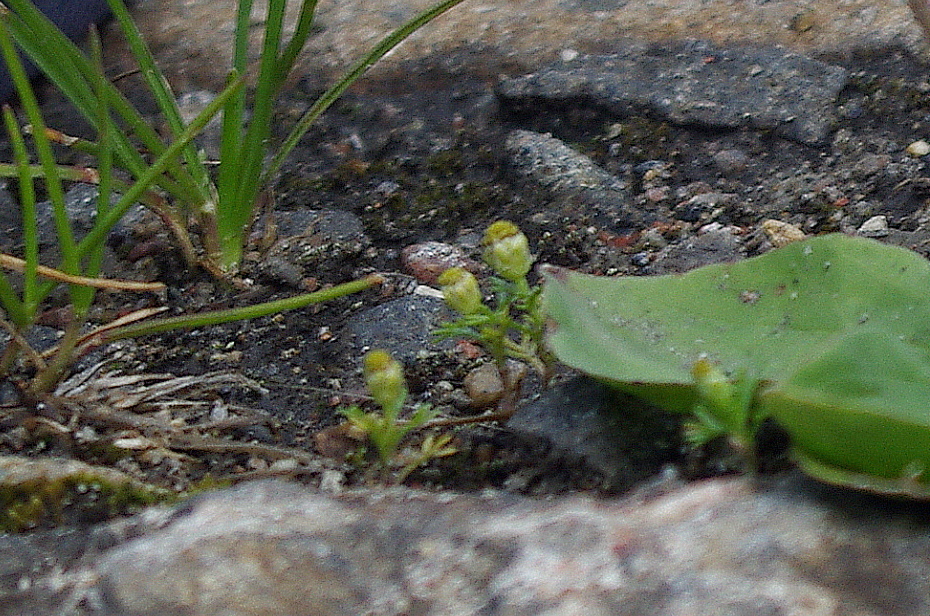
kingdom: Plantae
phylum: Tracheophyta
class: Magnoliopsida
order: Asterales
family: Asteraceae
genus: Matricaria
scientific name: Matricaria discoidea
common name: Disc mayweed
